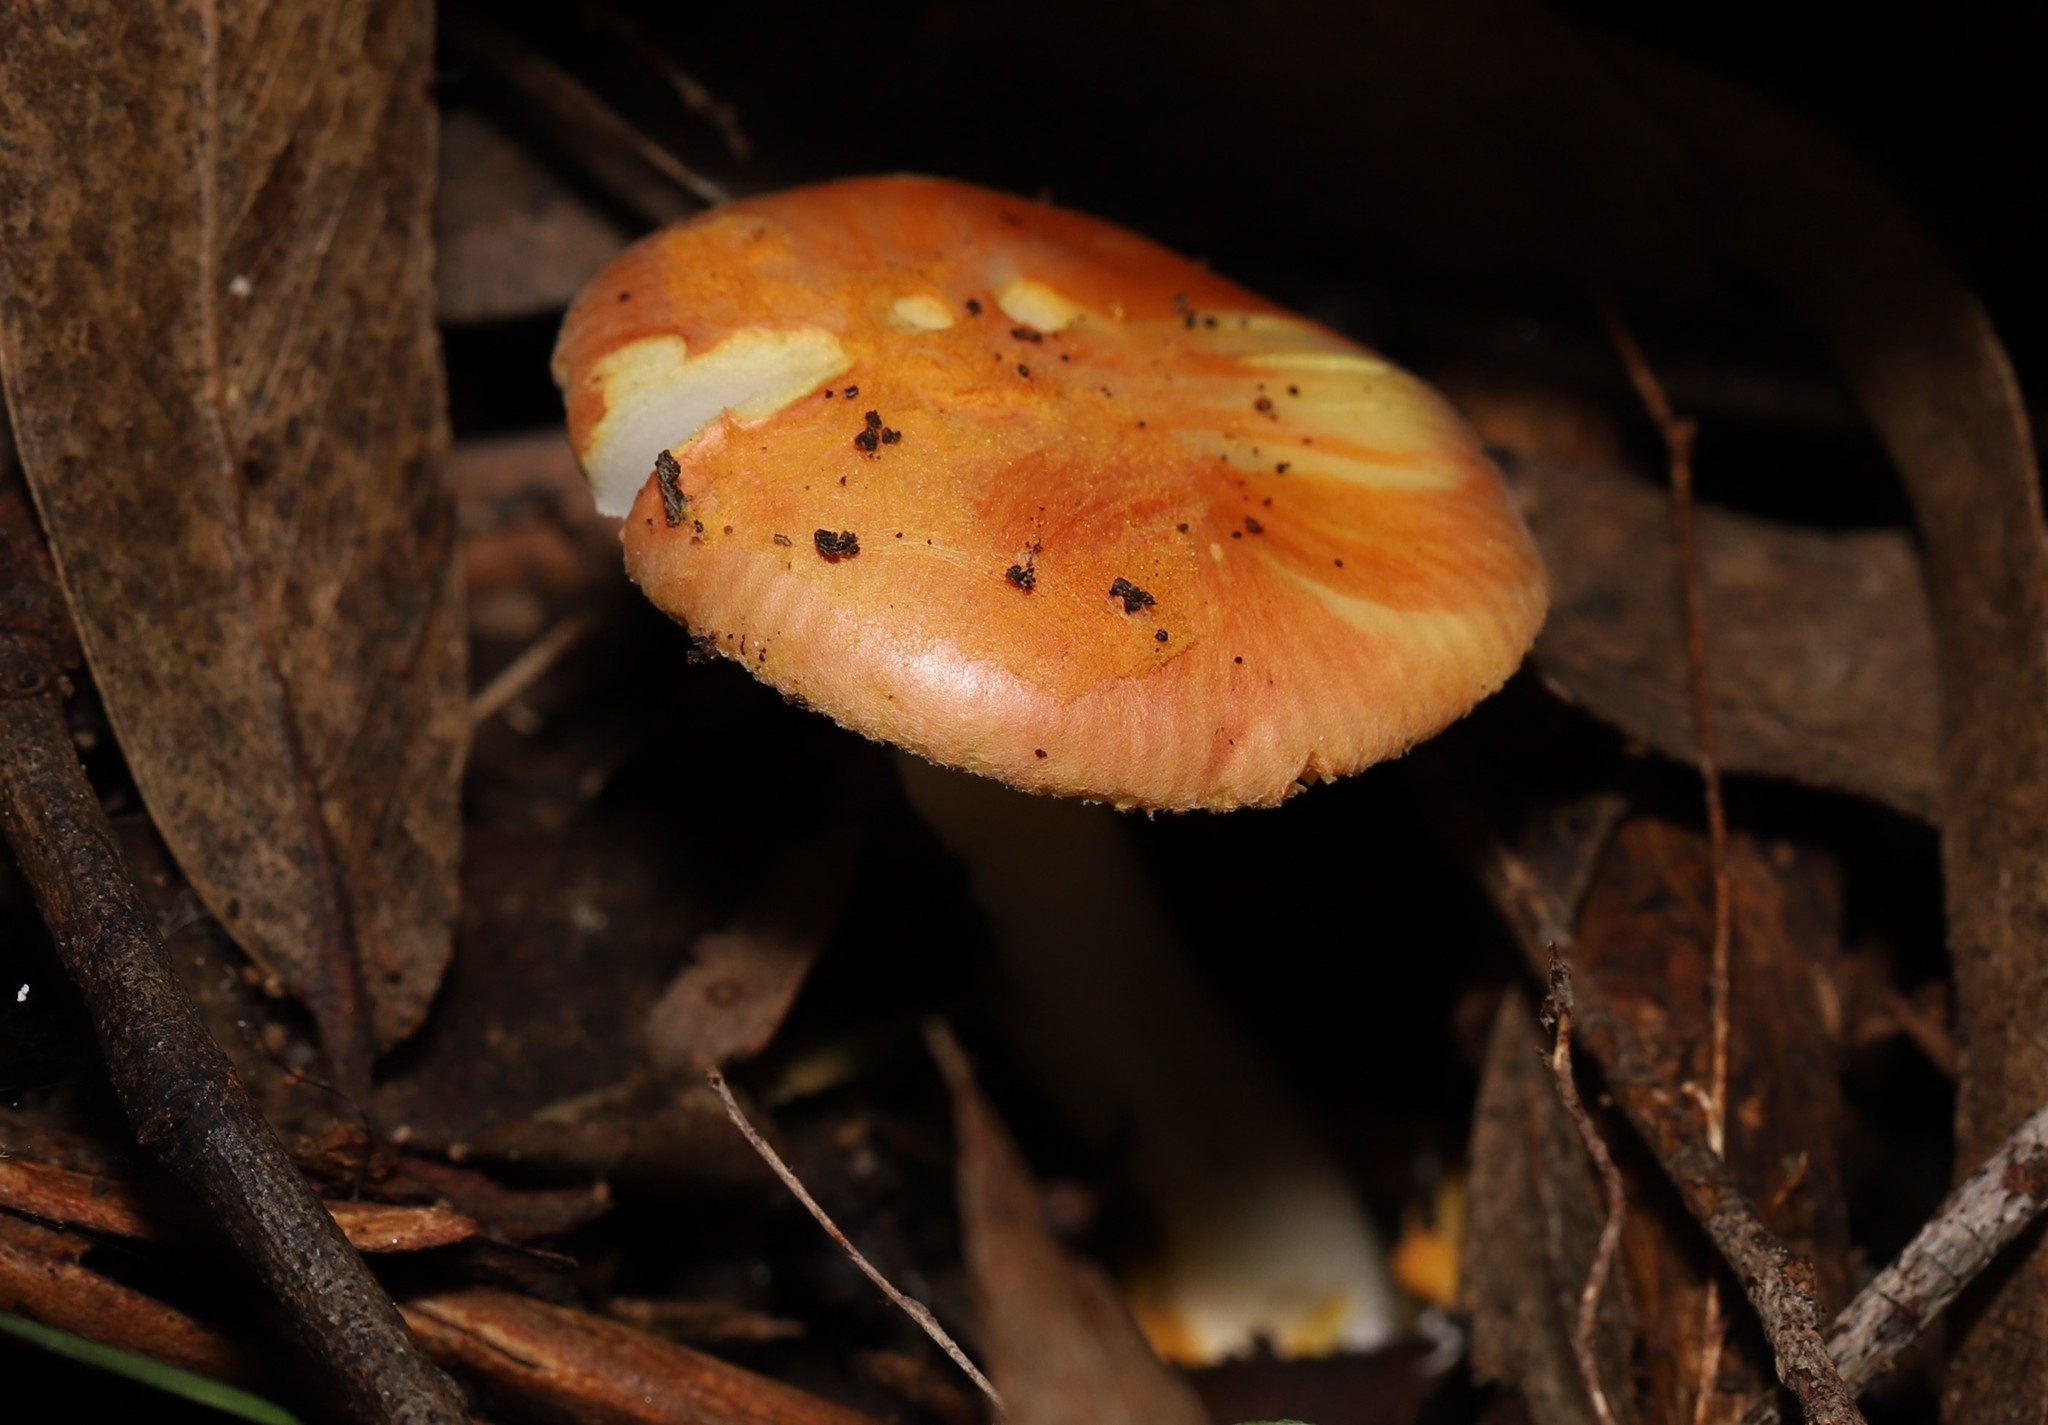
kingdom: Fungi
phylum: Basidiomycota
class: Agaricomycetes
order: Agaricales
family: Amanitaceae
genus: Amanita
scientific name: Amanita xanthocephala
